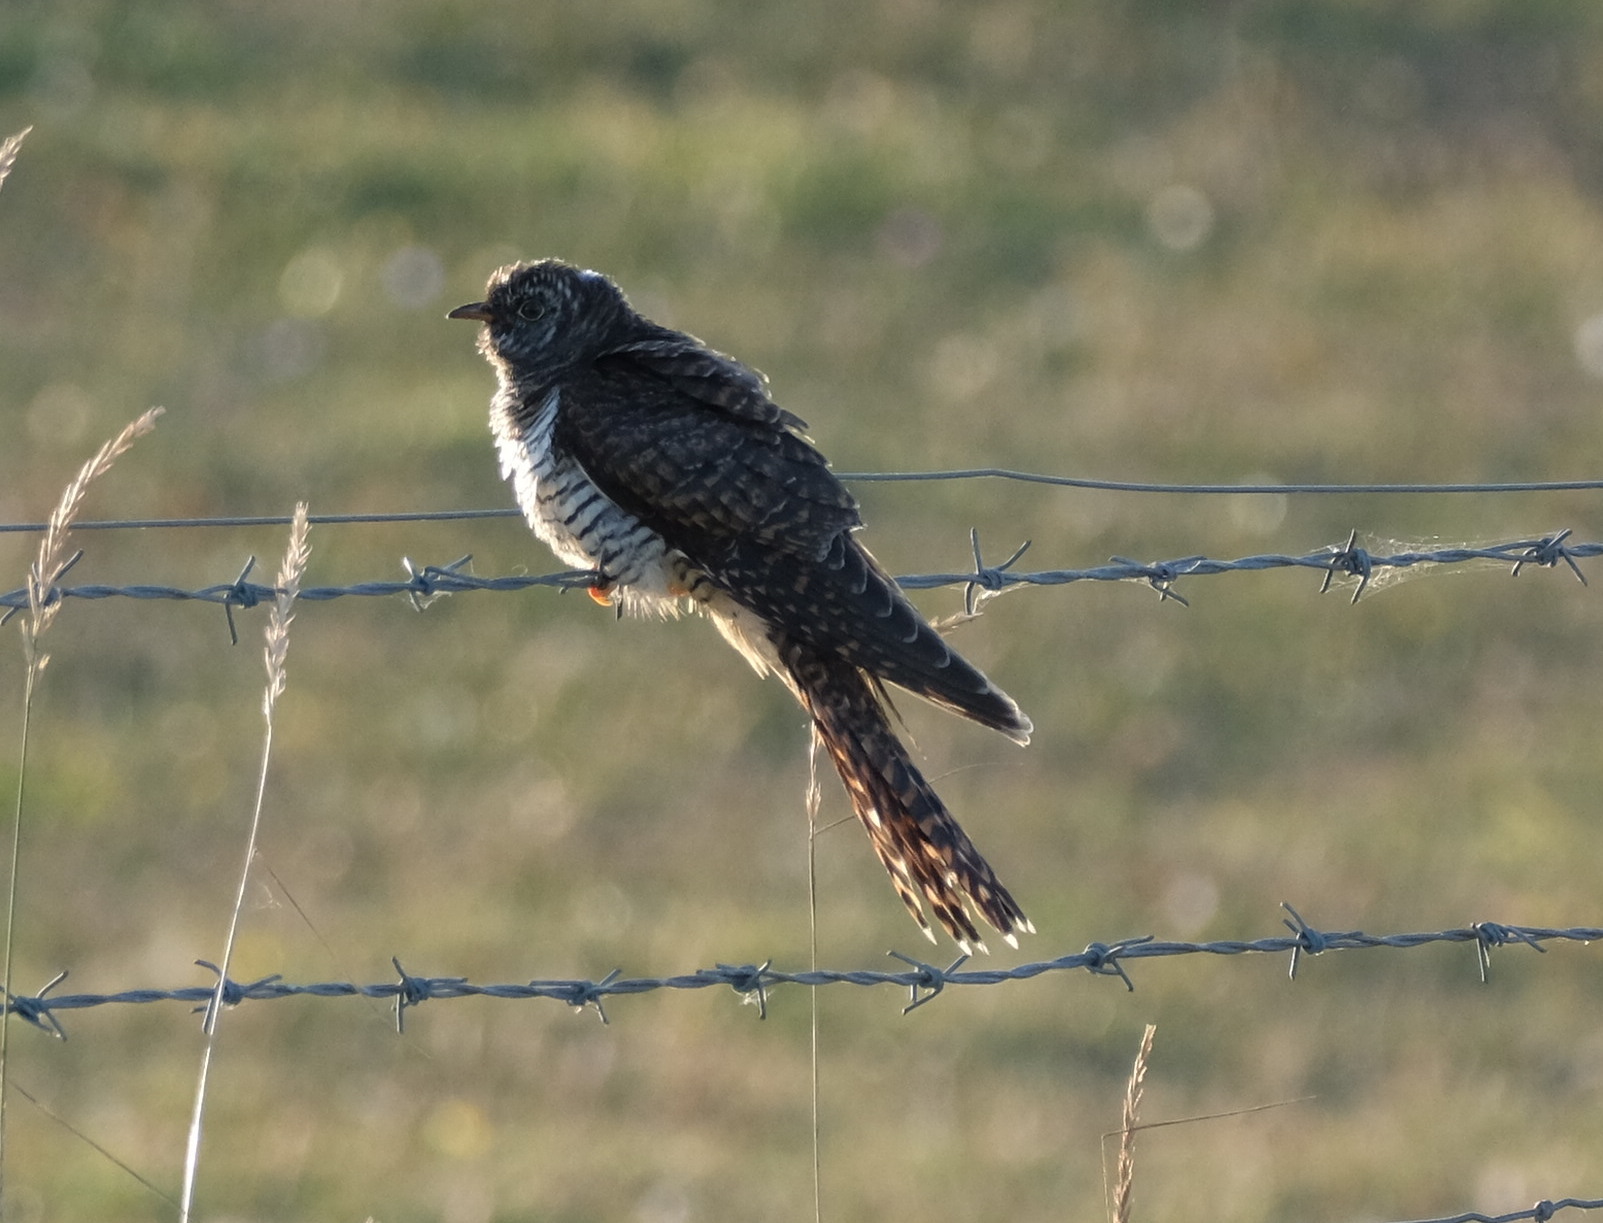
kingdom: Animalia
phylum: Chordata
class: Aves
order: Cuculiformes
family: Cuculidae
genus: Cuculus
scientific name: Cuculus canorus
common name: Common cuckoo
